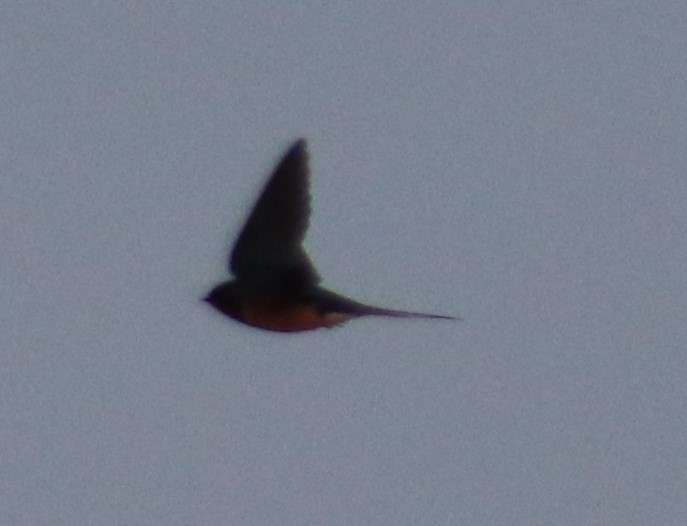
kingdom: Animalia
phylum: Chordata
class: Aves
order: Passeriformes
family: Hirundinidae
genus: Hirundo
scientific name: Hirundo rustica
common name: Barn swallow
